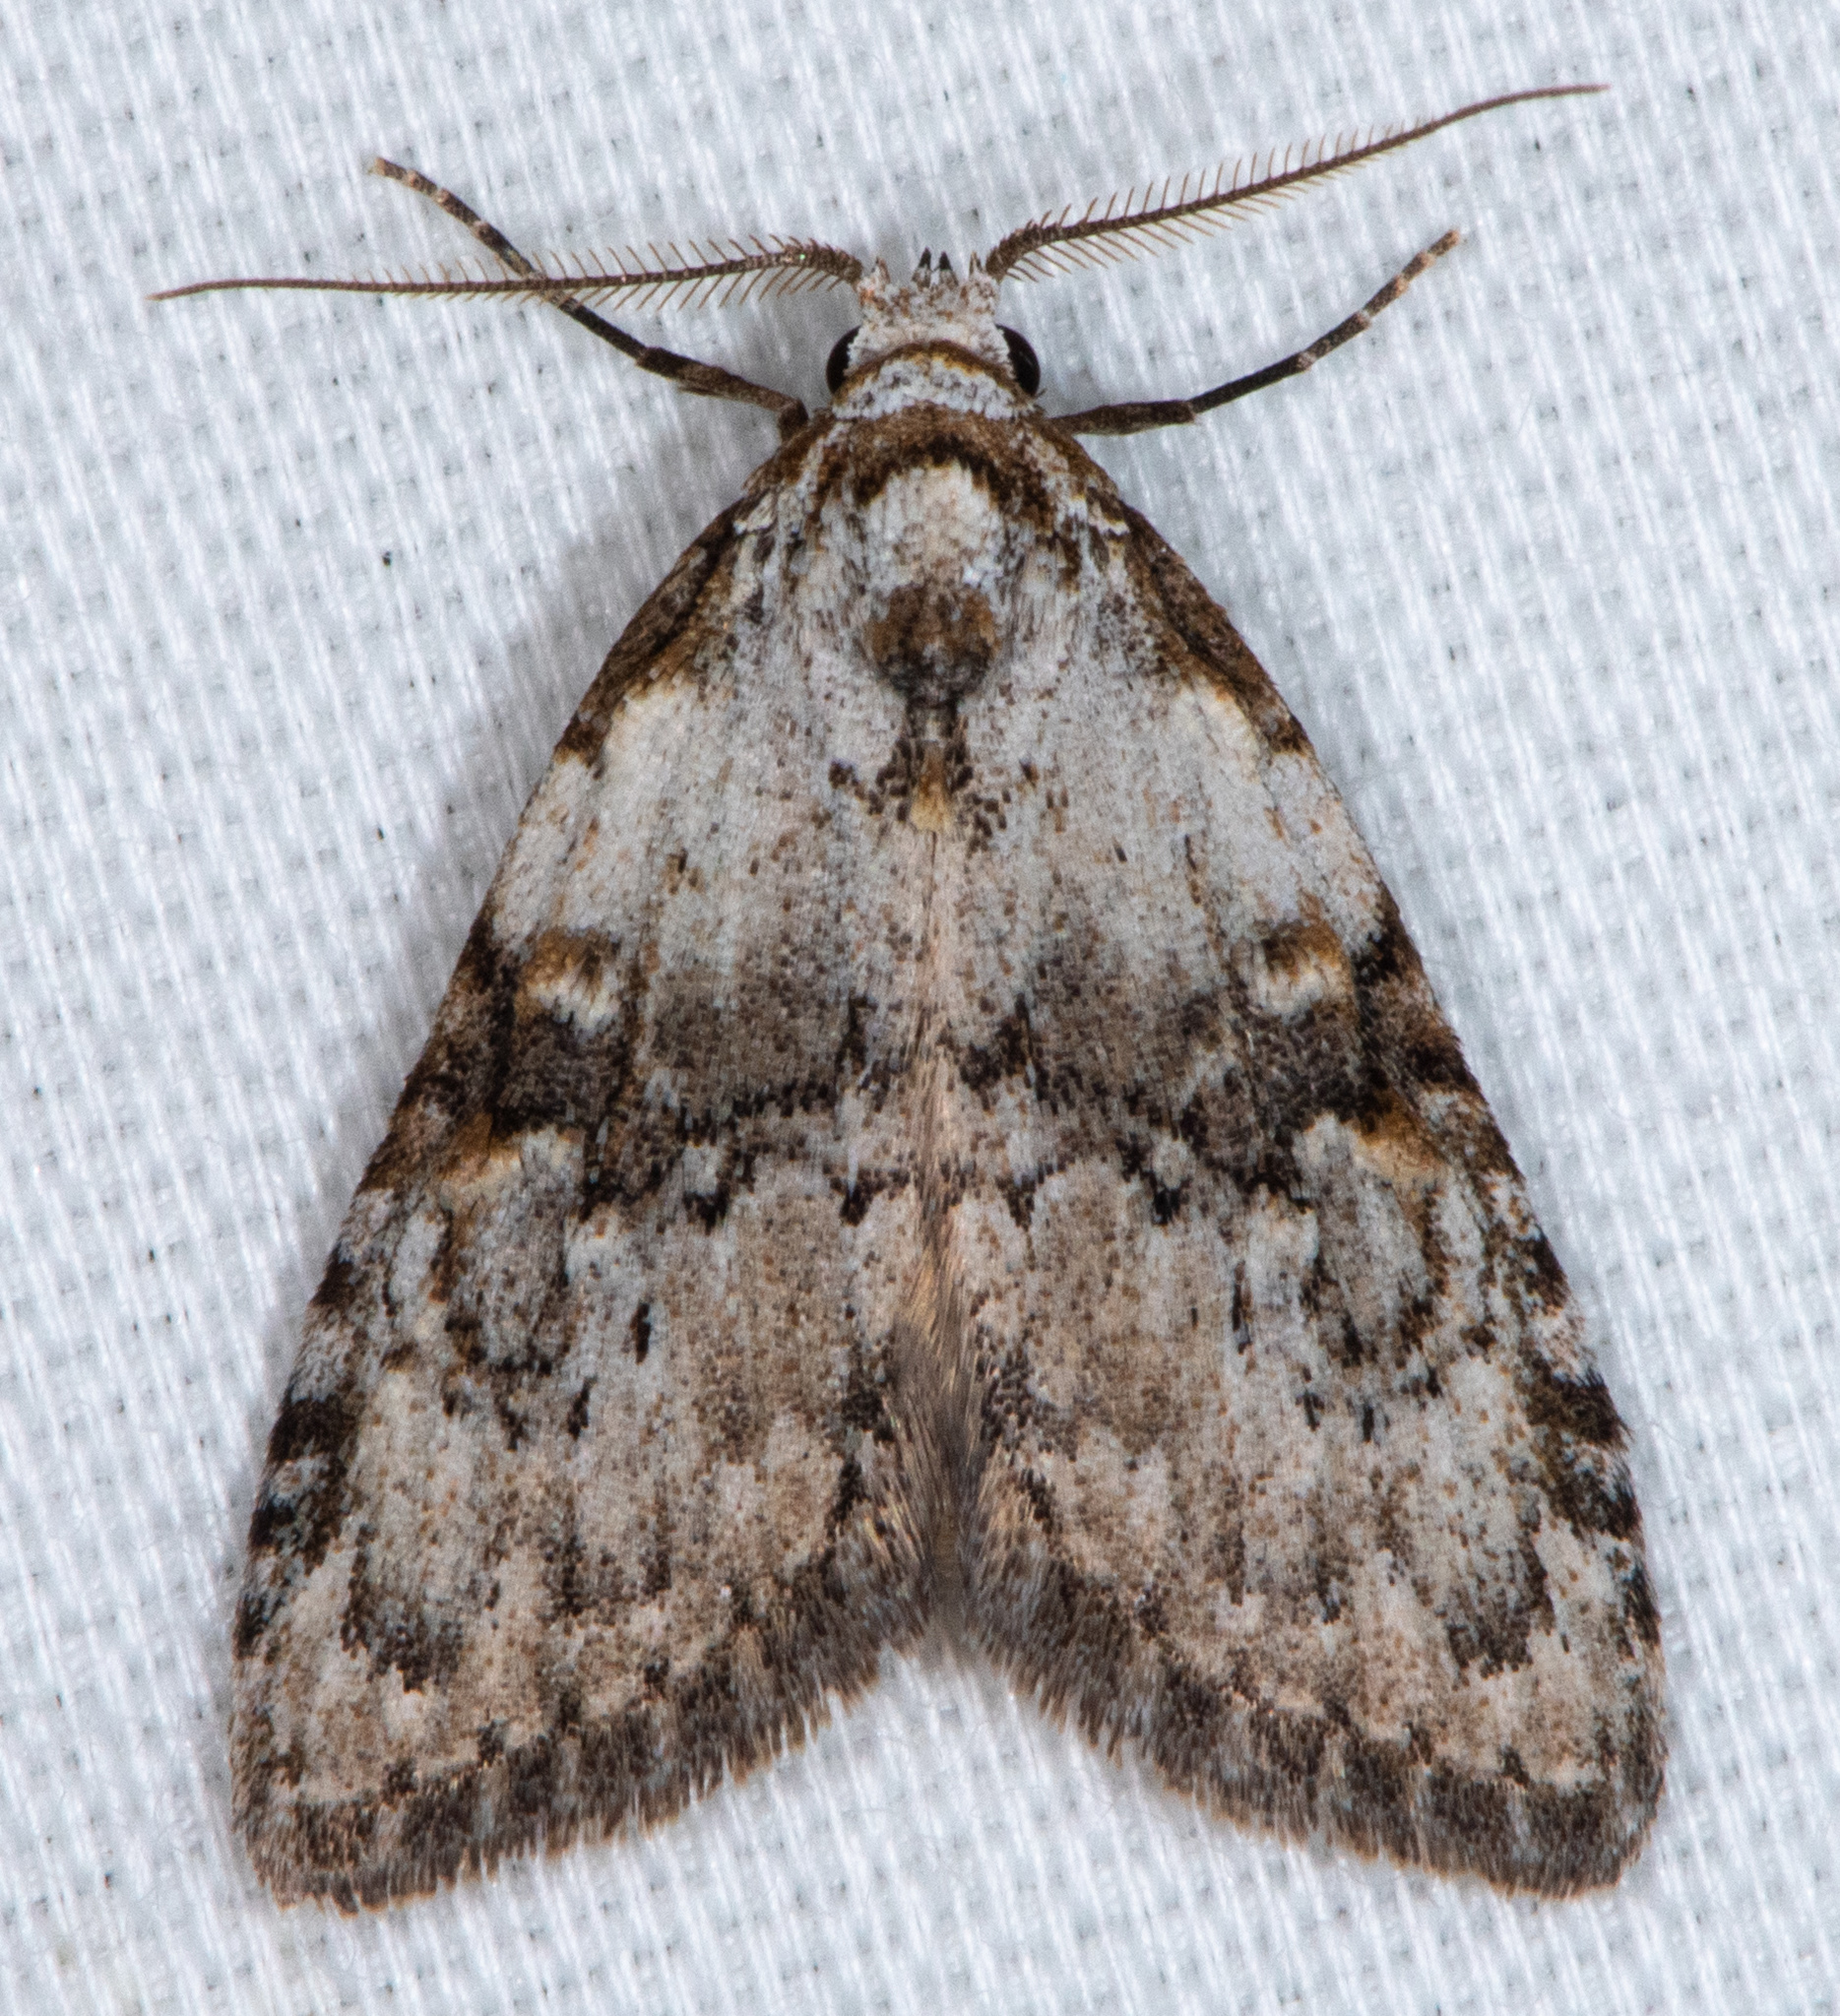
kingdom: Animalia
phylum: Arthropoda
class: Insecta
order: Lepidoptera
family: Nolidae
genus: Meganola
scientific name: Meganola minuscula
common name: Confused meganola moth
